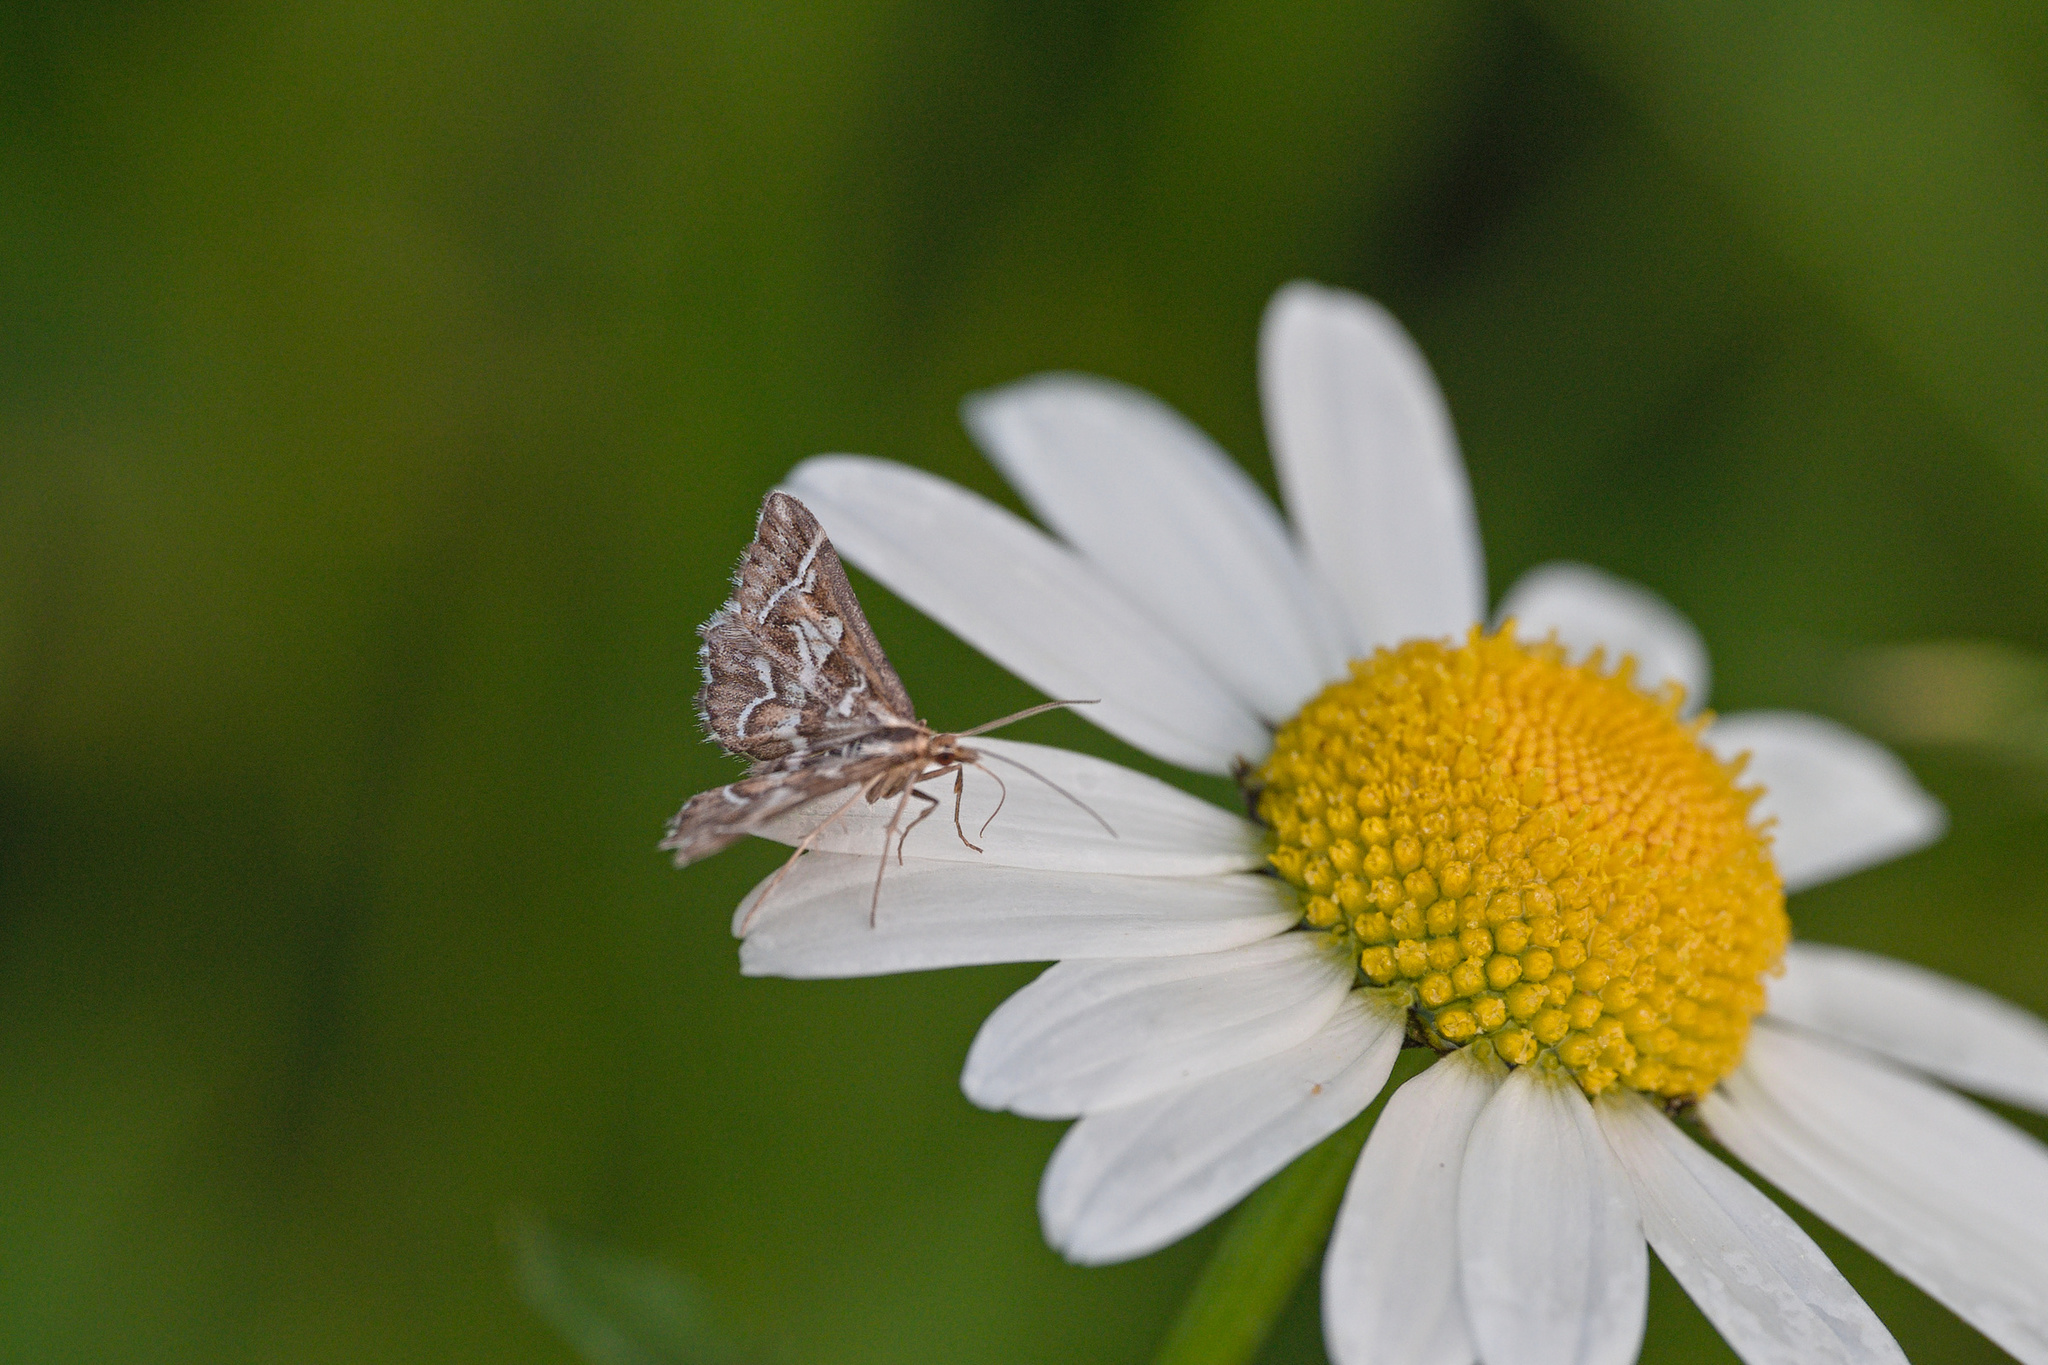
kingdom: Animalia
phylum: Arthropoda
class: Insecta
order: Lepidoptera
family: Crambidae
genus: Diasemia
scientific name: Diasemia reticularis
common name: Lettered china-mark
